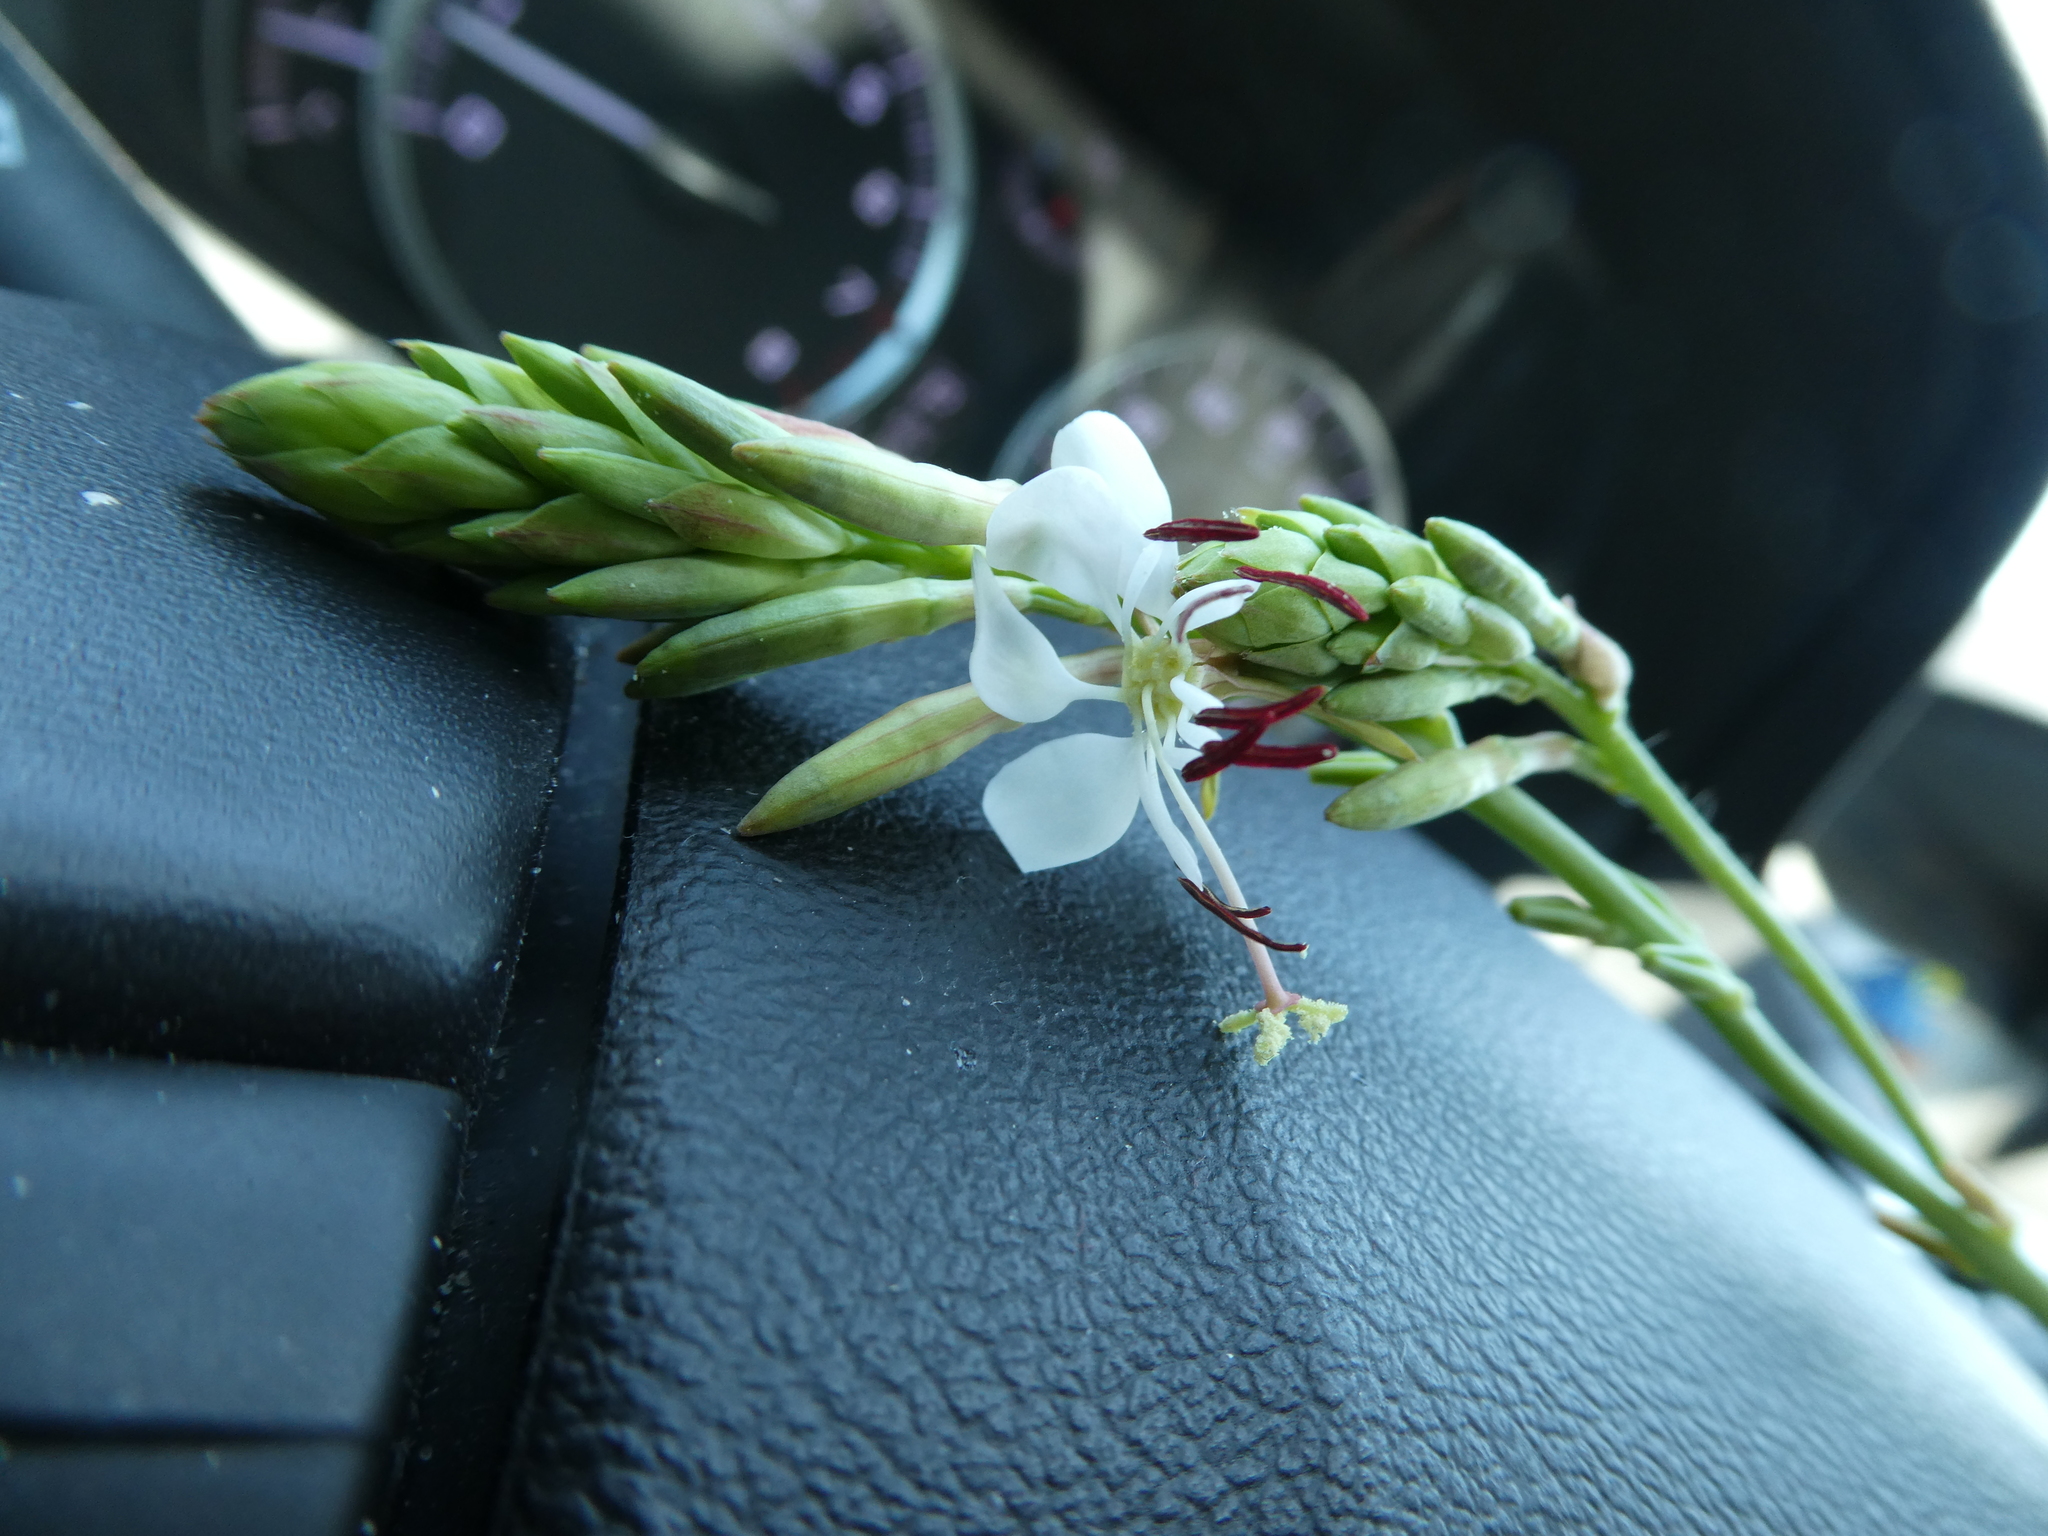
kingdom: Plantae
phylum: Tracheophyta
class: Magnoliopsida
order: Myrtales
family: Onagraceae
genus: Oenothera
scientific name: Oenothera suffulta
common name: Kisses
